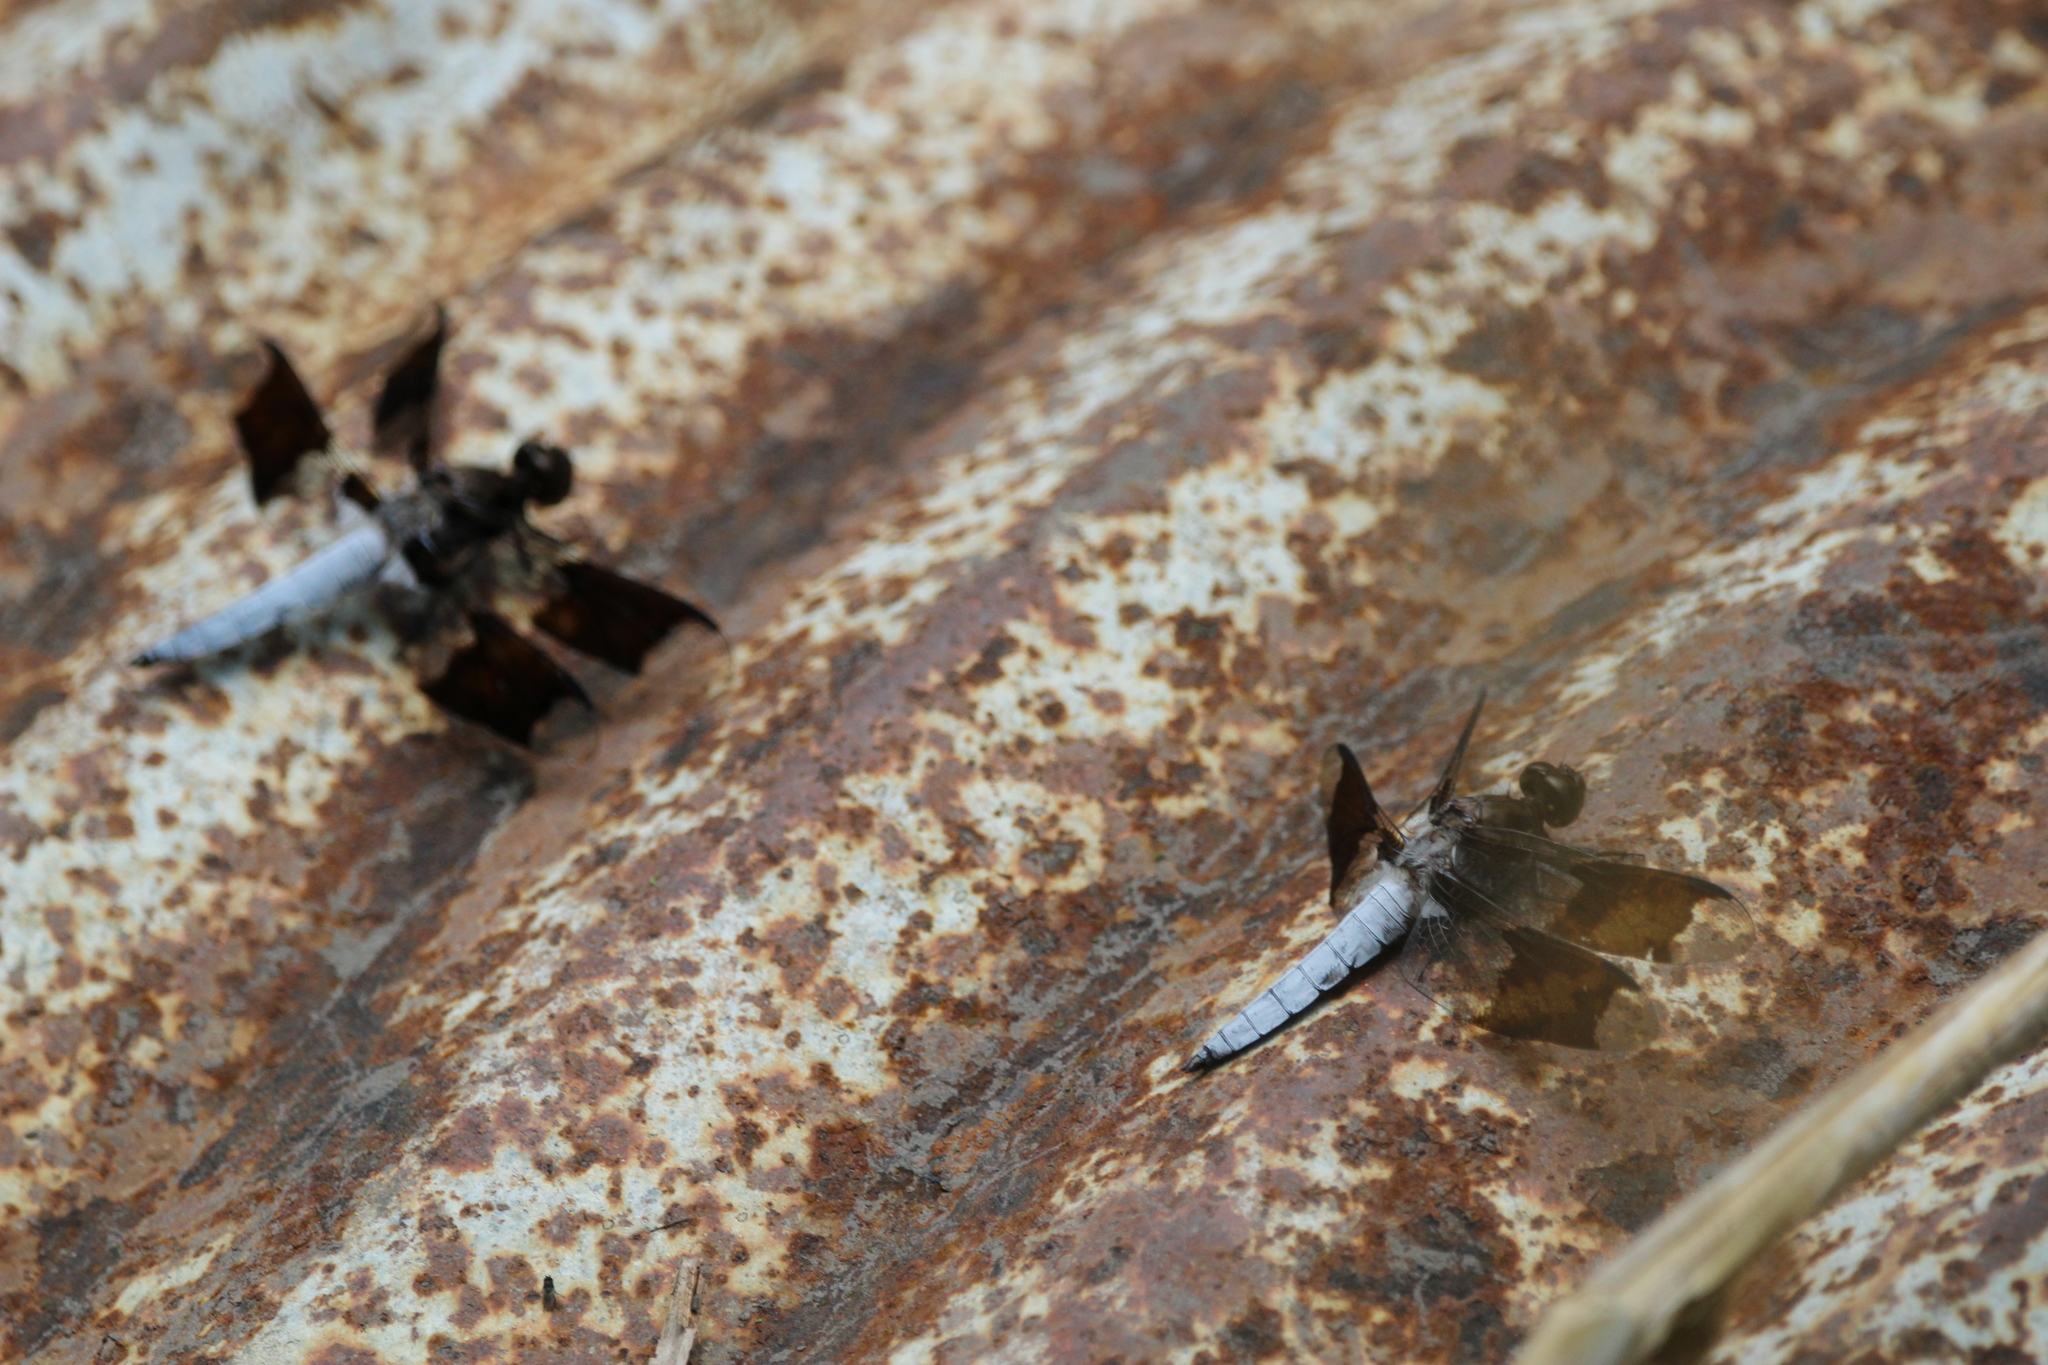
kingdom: Animalia
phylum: Arthropoda
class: Insecta
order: Odonata
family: Libellulidae
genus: Plathemis
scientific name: Plathemis lydia
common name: Common whitetail
